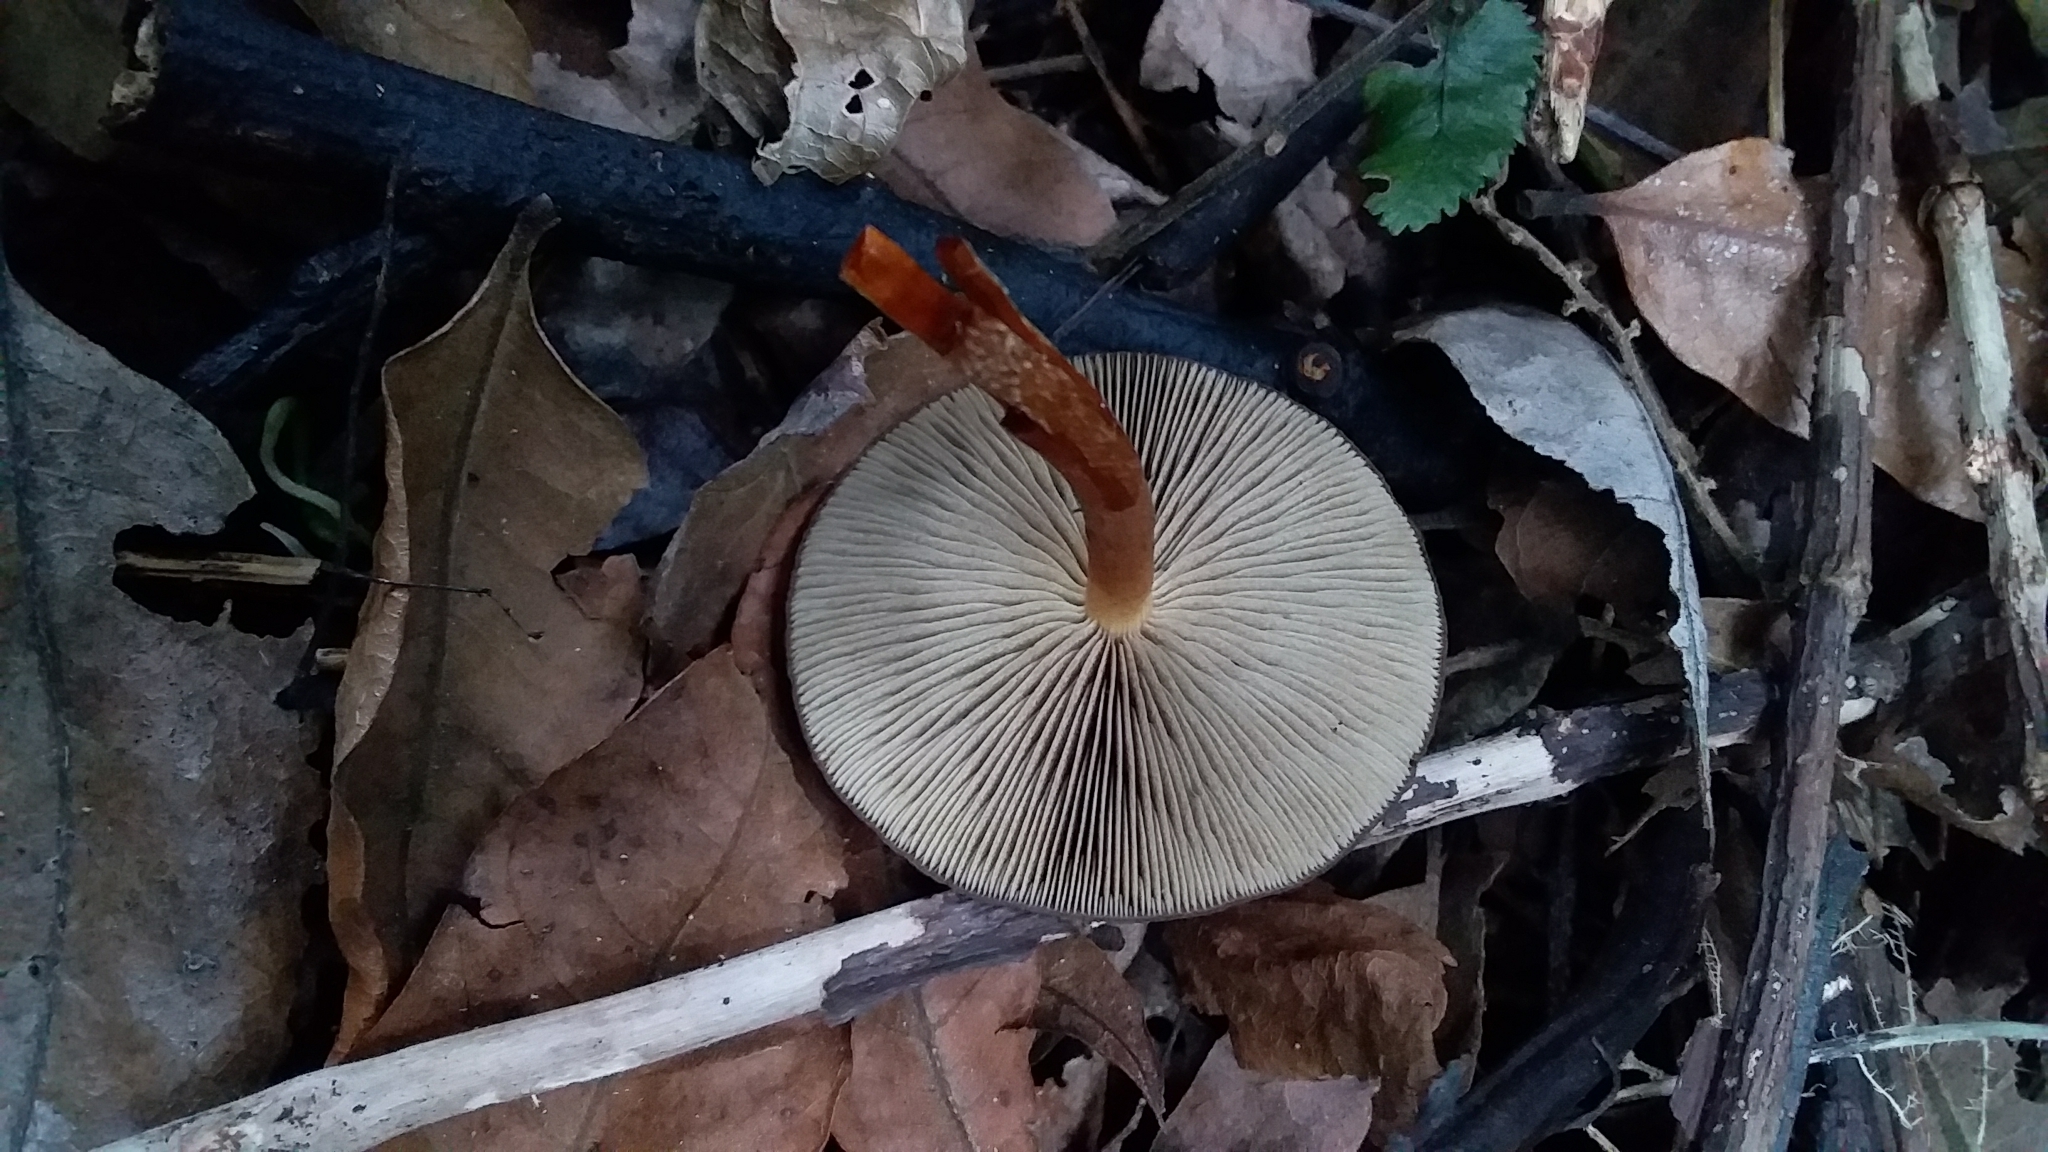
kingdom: Fungi
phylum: Basidiomycota
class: Agaricomycetes
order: Agaricales
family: Strophariaceae
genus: Hypholoma
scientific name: Hypholoma brunneum
